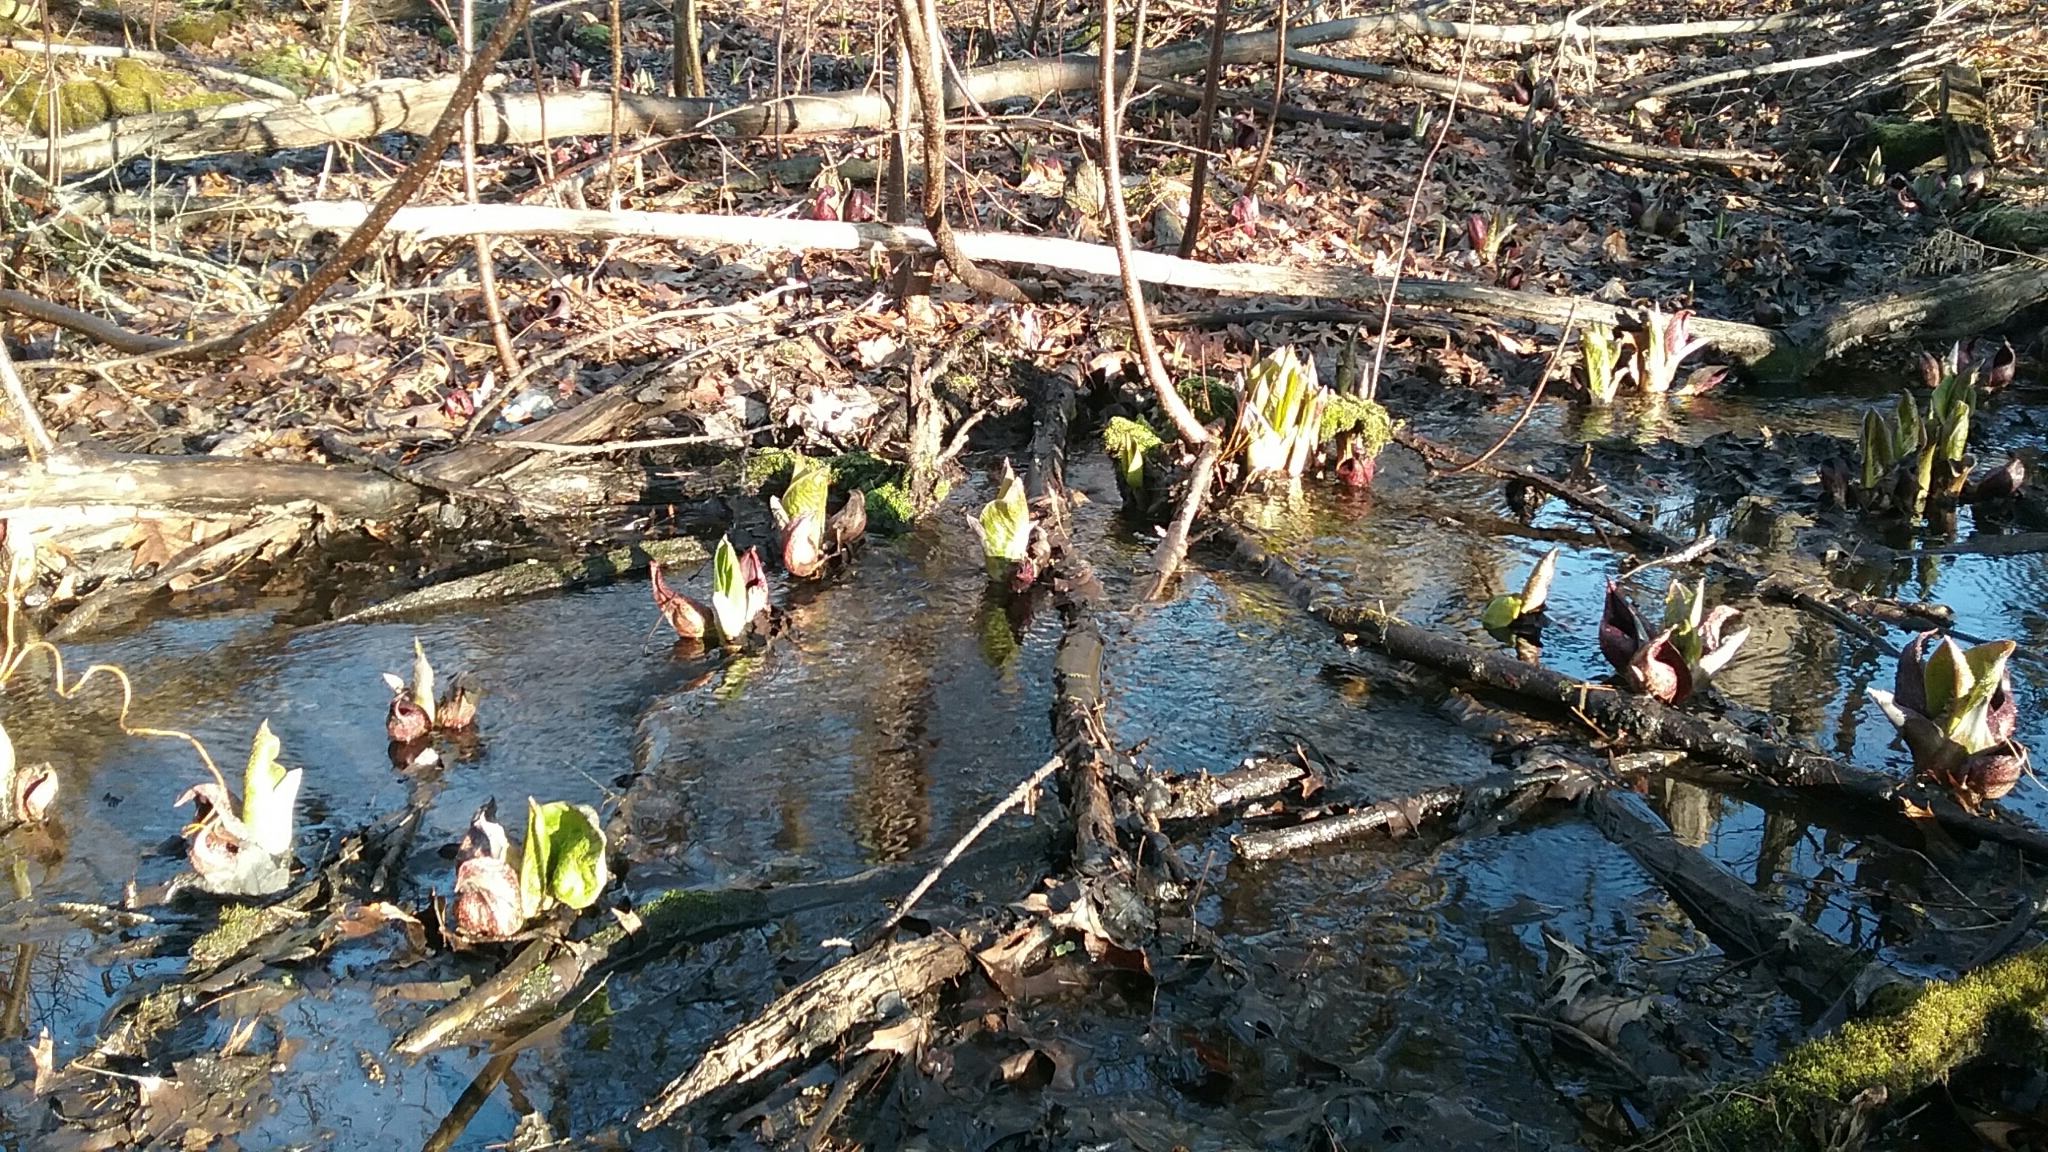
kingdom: Plantae
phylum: Tracheophyta
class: Liliopsida
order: Alismatales
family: Araceae
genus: Symplocarpus
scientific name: Symplocarpus foetidus
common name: Eastern skunk cabbage
